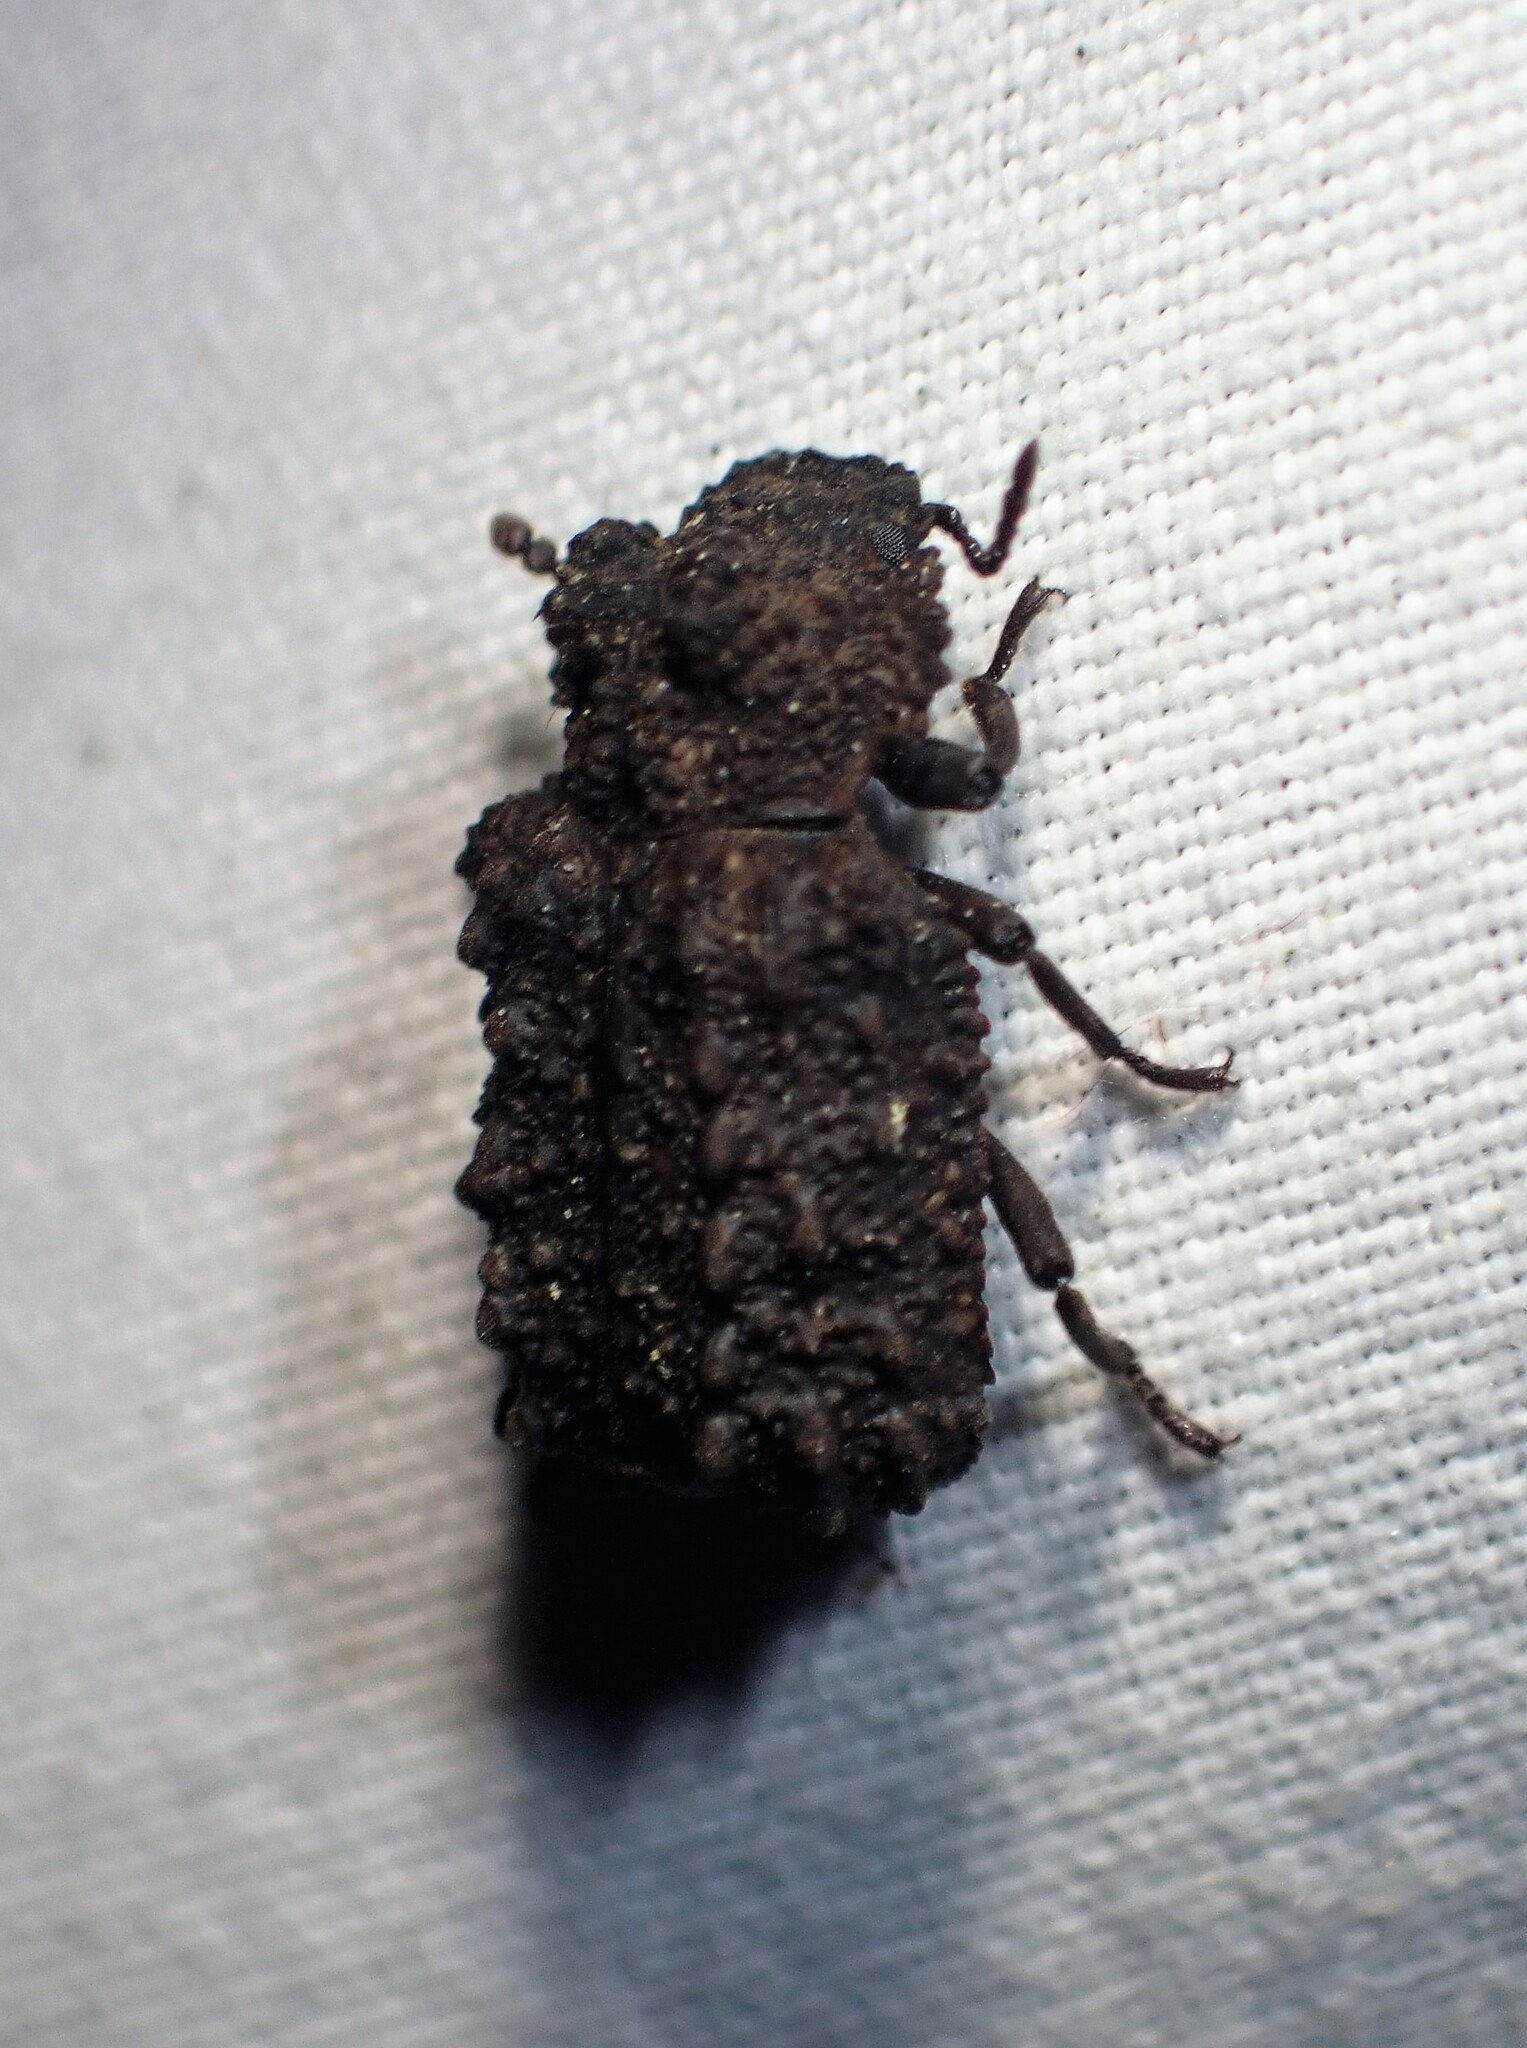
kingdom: Animalia
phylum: Arthropoda
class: Insecta
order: Coleoptera
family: Tenebrionidae
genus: Gnatocerus
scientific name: Gnatocerus cornutus
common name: Broad-horned flour beetle
